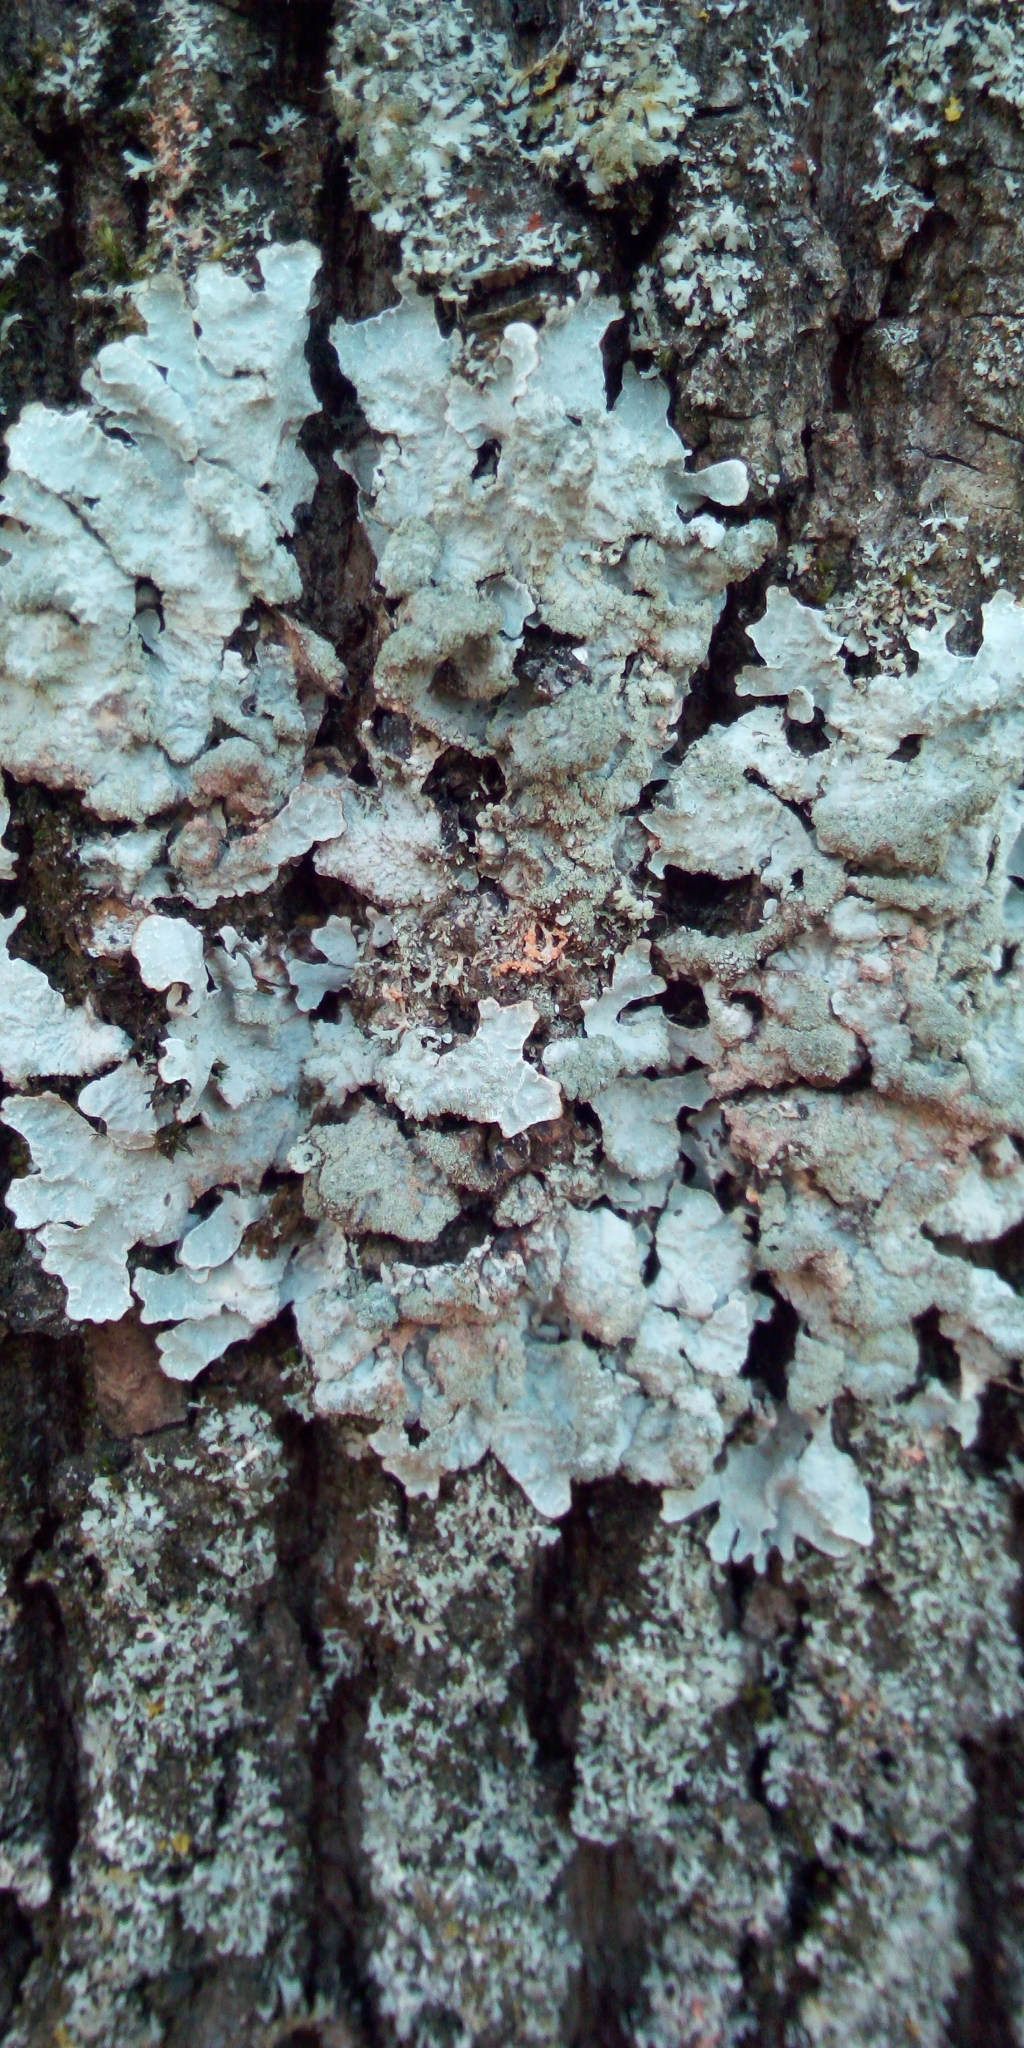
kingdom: Fungi
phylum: Ascomycota
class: Lecanoromycetes
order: Lecanorales
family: Parmeliaceae
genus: Parmelia
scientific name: Parmelia sulcata
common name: Netted shield lichen
